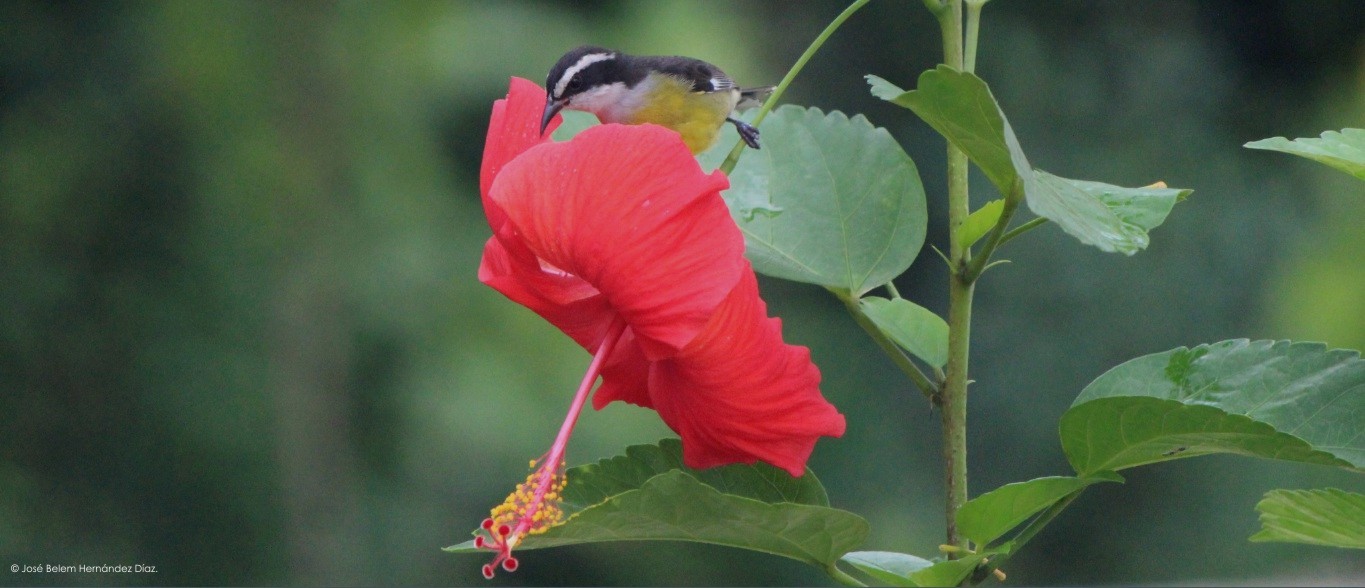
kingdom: Animalia
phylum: Chordata
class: Aves
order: Passeriformes
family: Thraupidae
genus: Coereba
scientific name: Coereba flaveola
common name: Bananaquit
